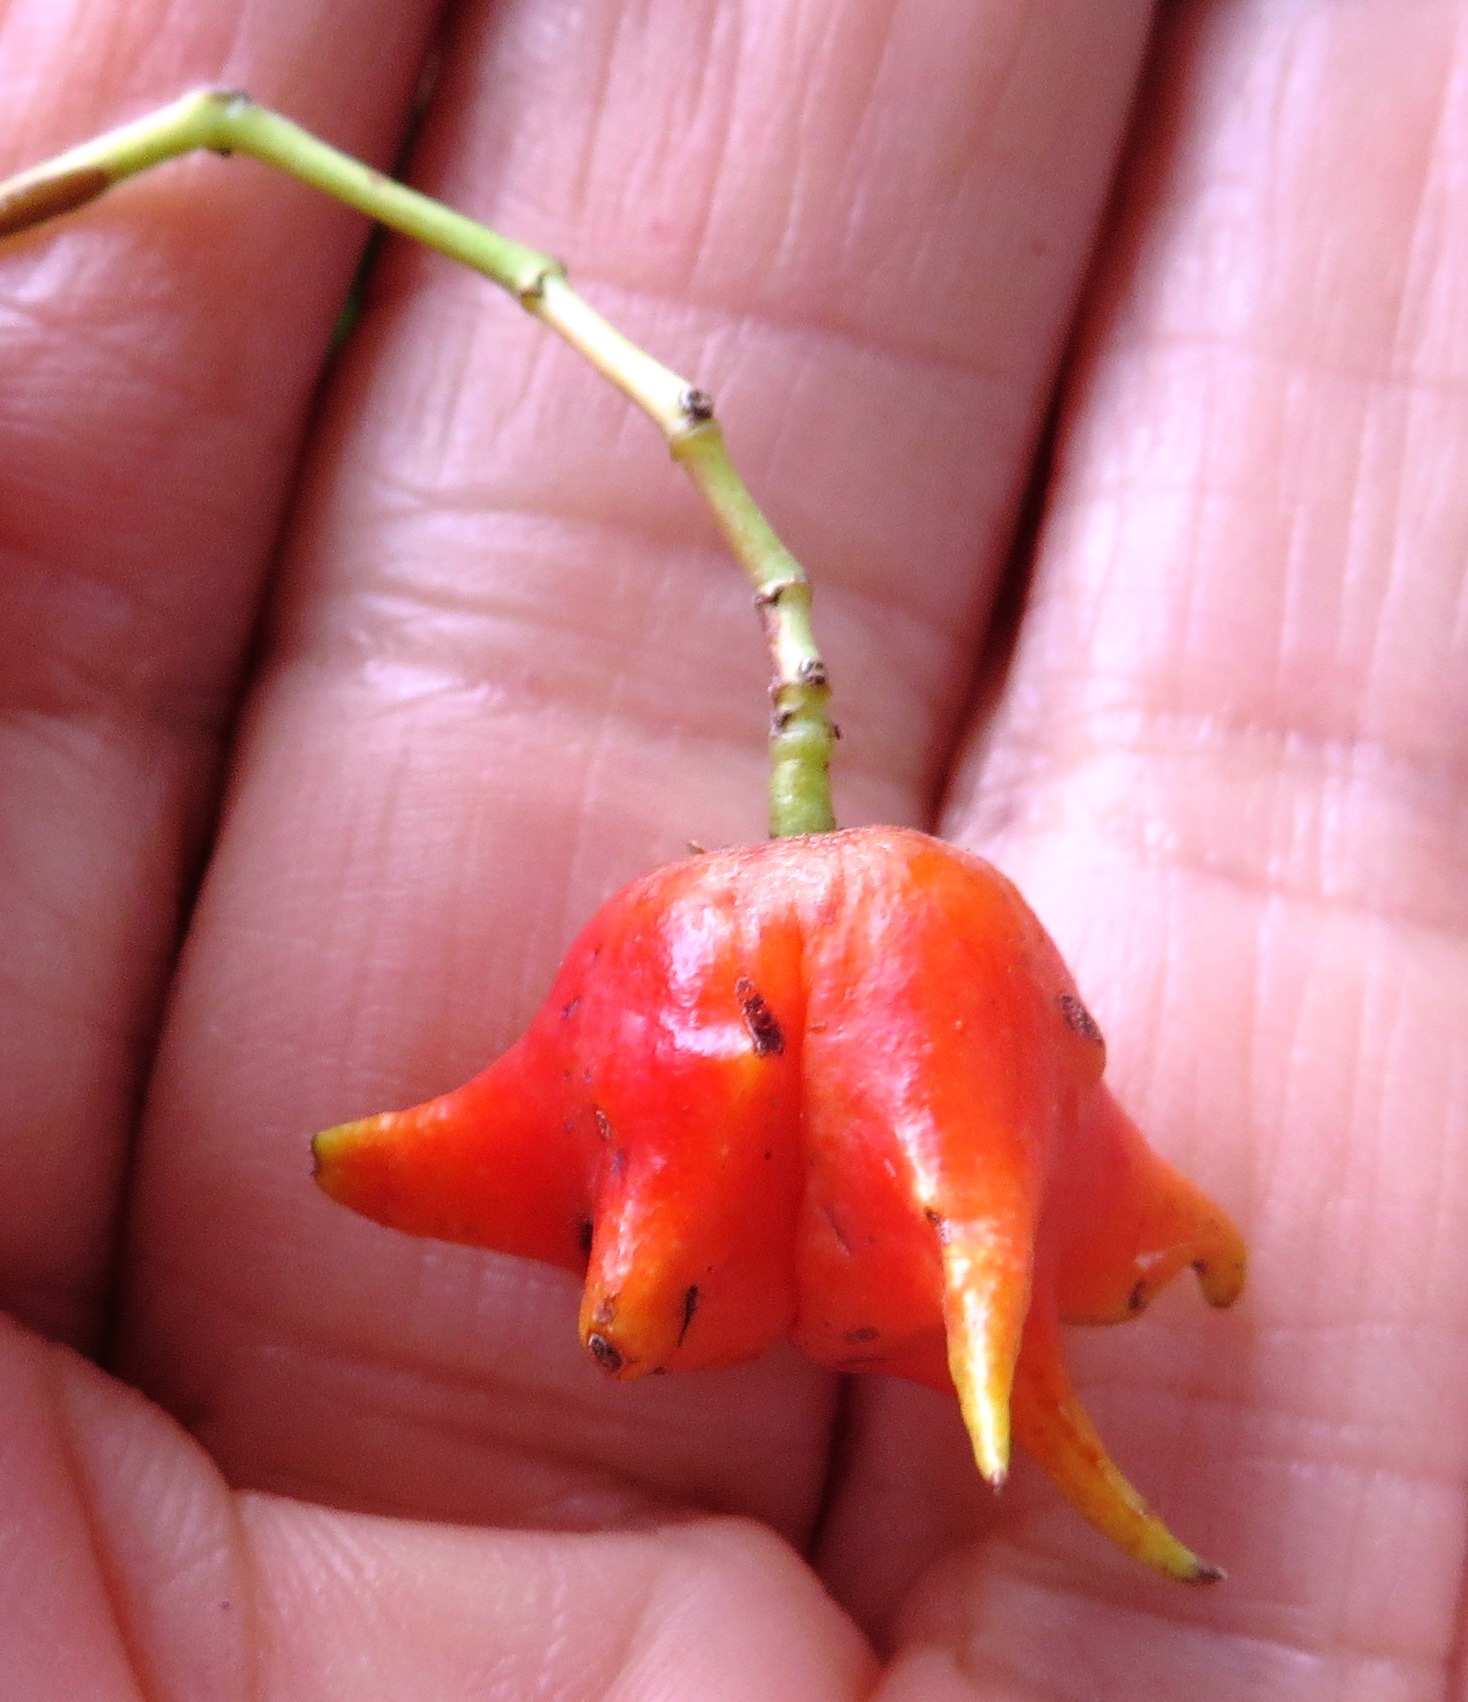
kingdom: Plantae
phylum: Tracheophyta
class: Magnoliopsida
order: Celastrales
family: Celastraceae
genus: Pterocelastrus
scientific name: Pterocelastrus rostratus
